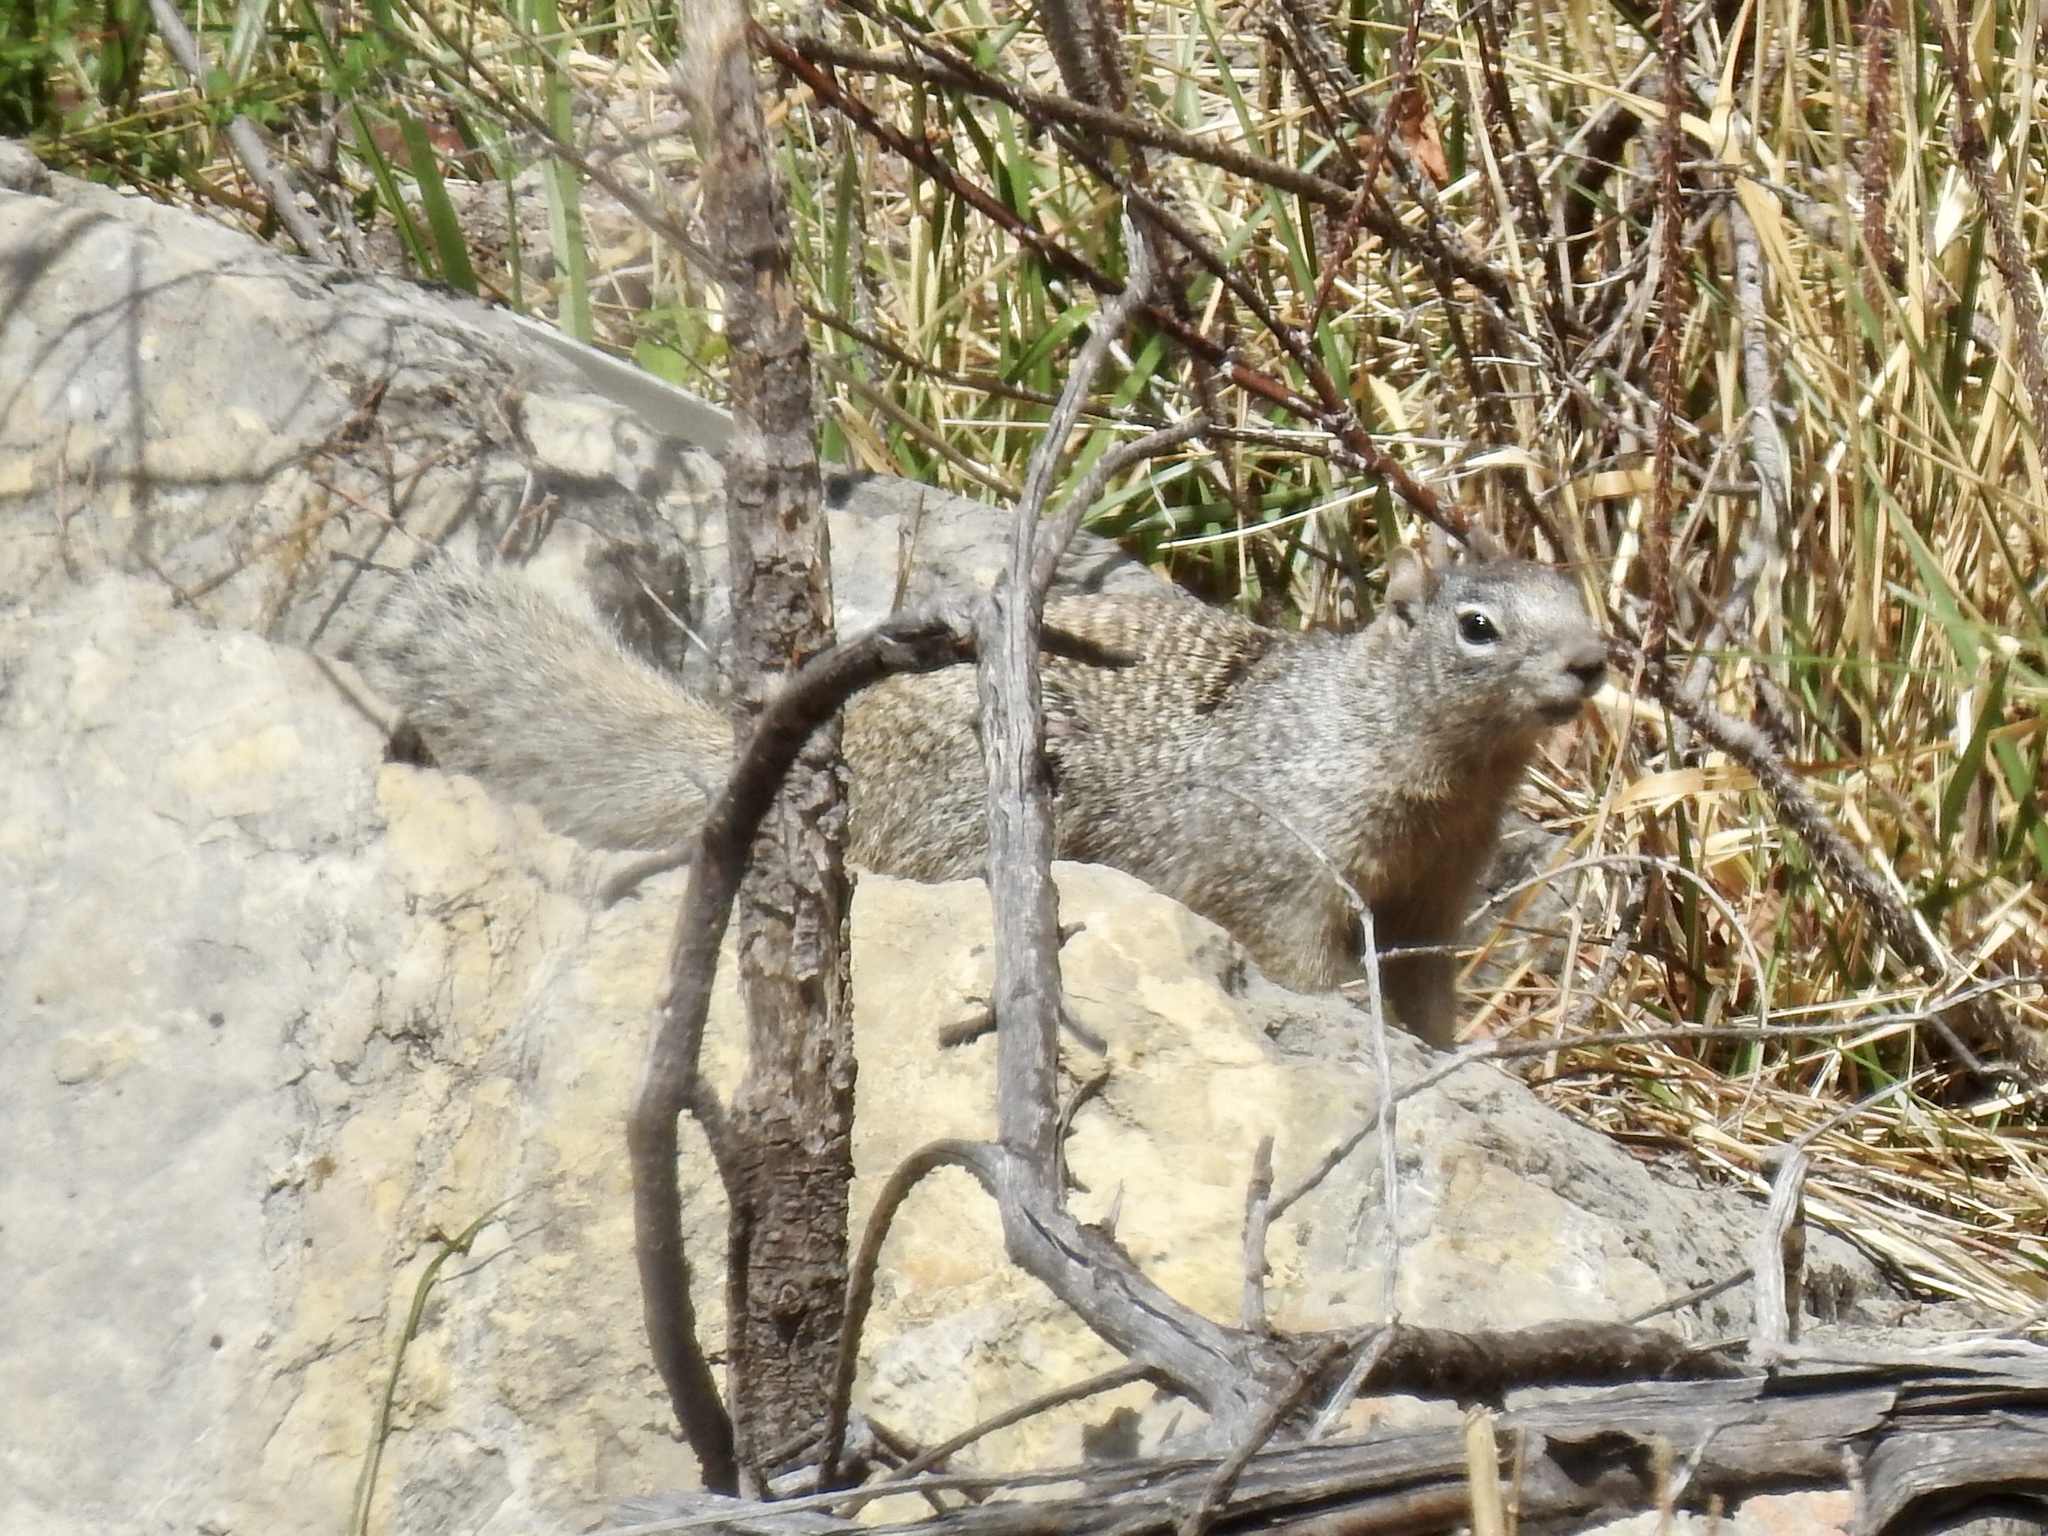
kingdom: Animalia
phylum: Chordata
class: Mammalia
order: Rodentia
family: Sciuridae
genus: Otospermophilus
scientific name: Otospermophilus variegatus
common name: Rock squirrel
